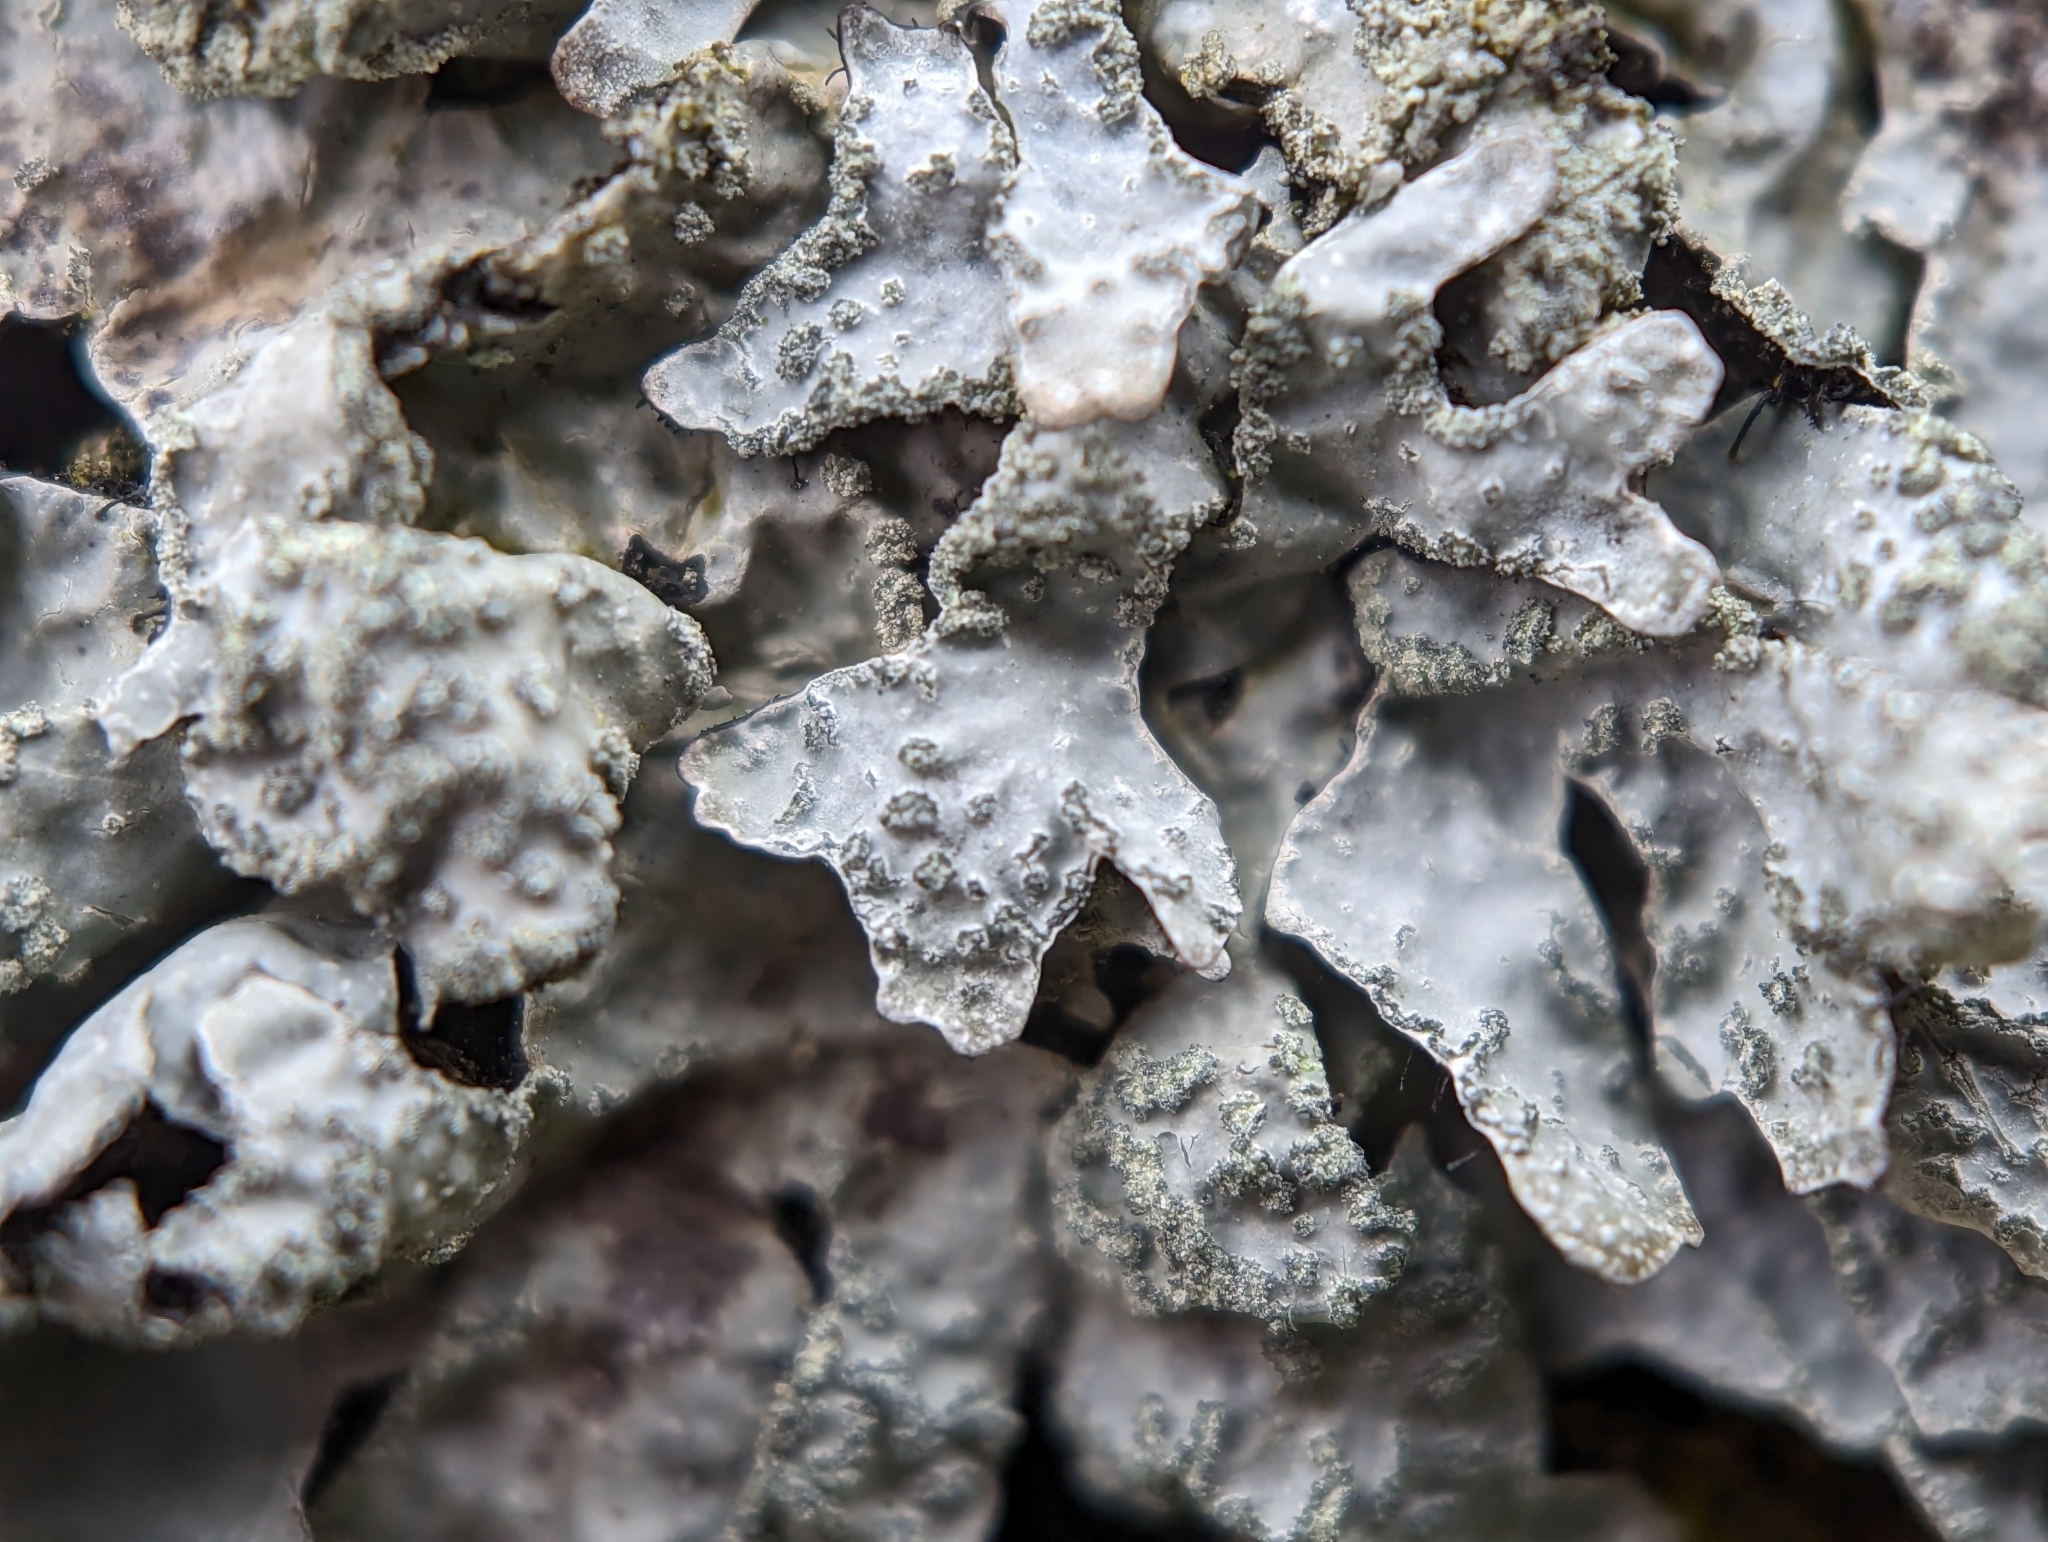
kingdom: Fungi
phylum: Ascomycota
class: Lecanoromycetes
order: Lecanorales
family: Parmeliaceae
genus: Parmelia
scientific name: Parmelia sulcata
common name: Netted shield lichen
